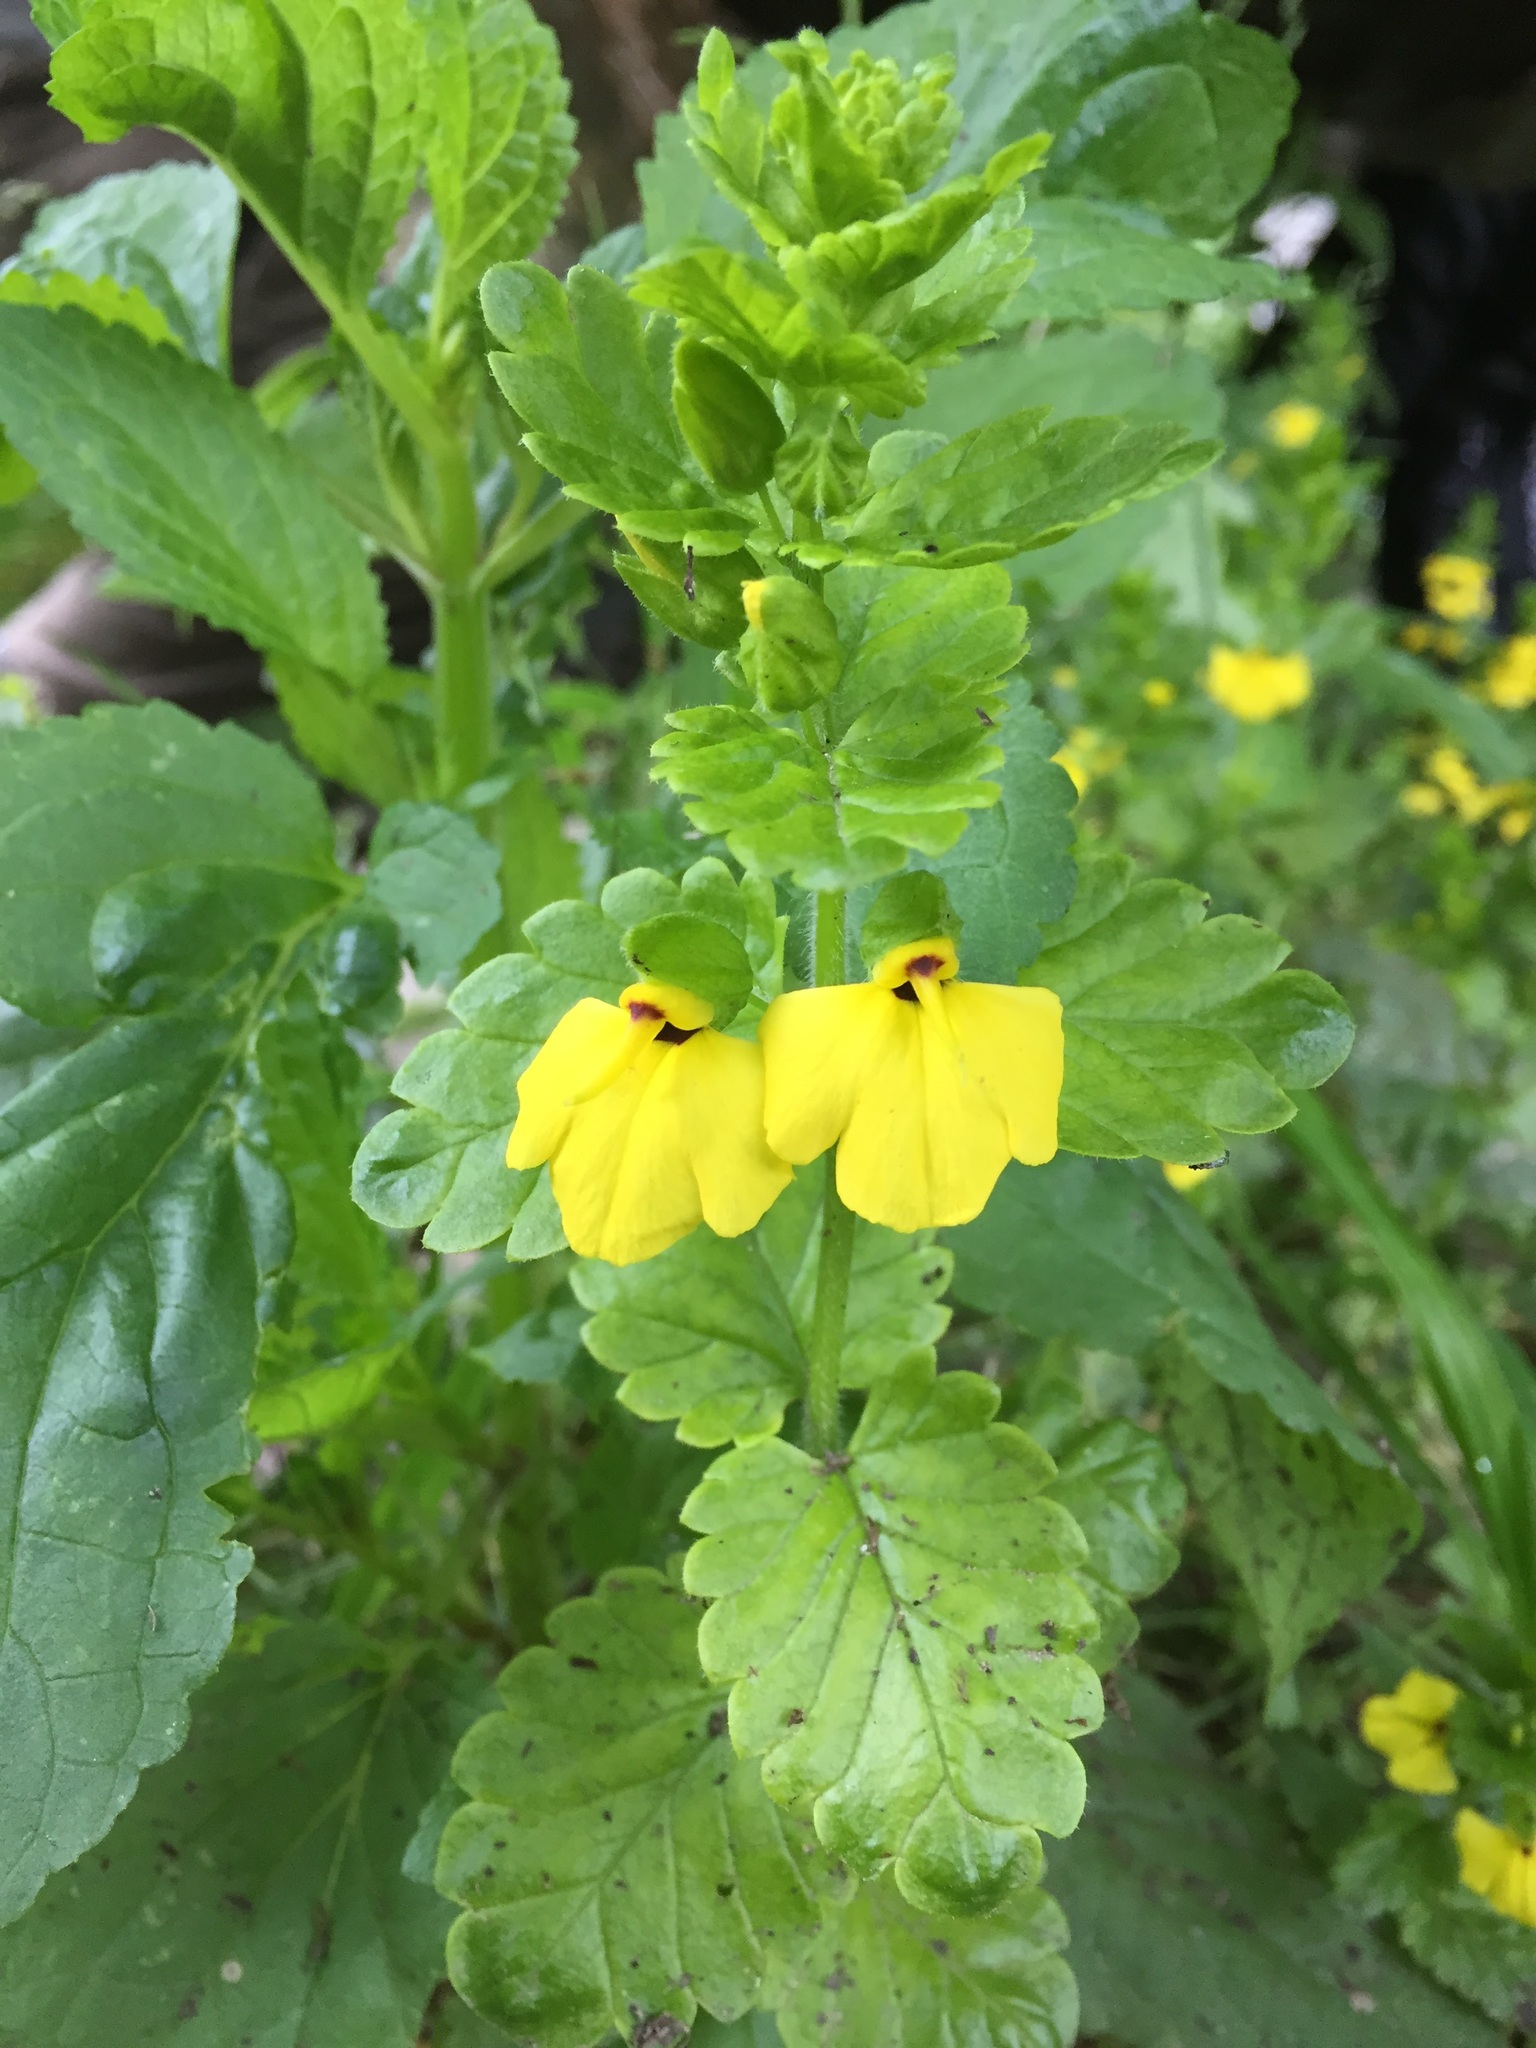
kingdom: Plantae
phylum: Tracheophyta
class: Magnoliopsida
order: Lamiales
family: Orobanchaceae
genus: Rhynchocorys
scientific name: Rhynchocorys elephas
